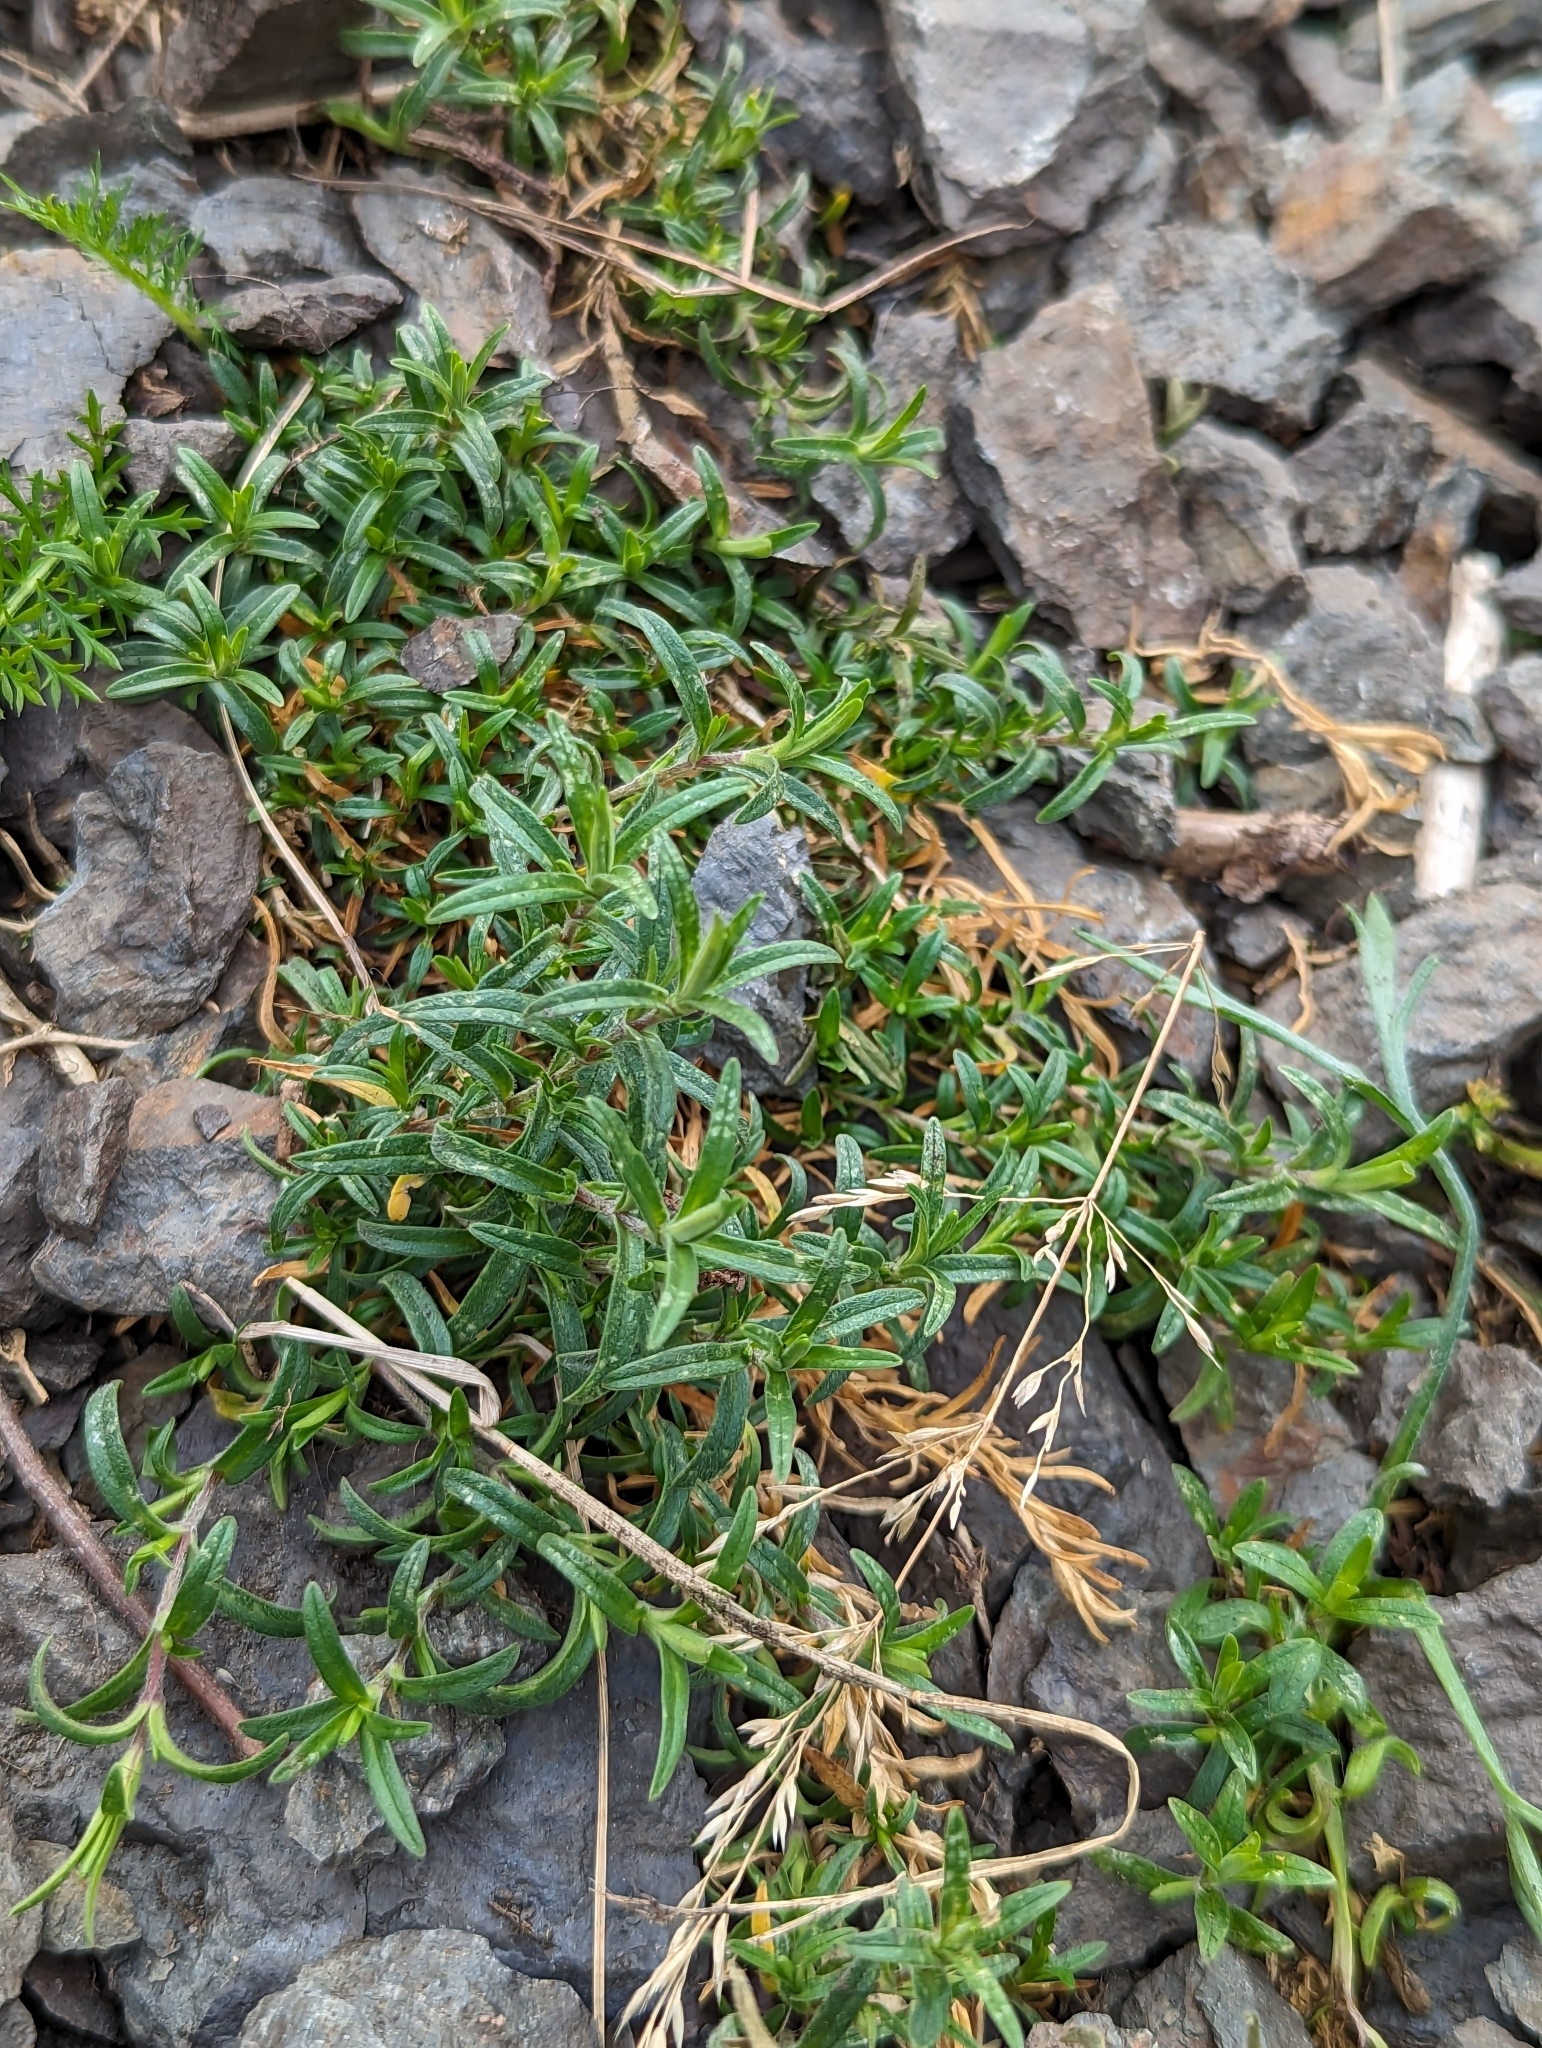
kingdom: Plantae
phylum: Tracheophyta
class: Magnoliopsida
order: Caryophyllales
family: Caryophyllaceae
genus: Cerastium
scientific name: Cerastium arvense
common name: Field mouse-ear
